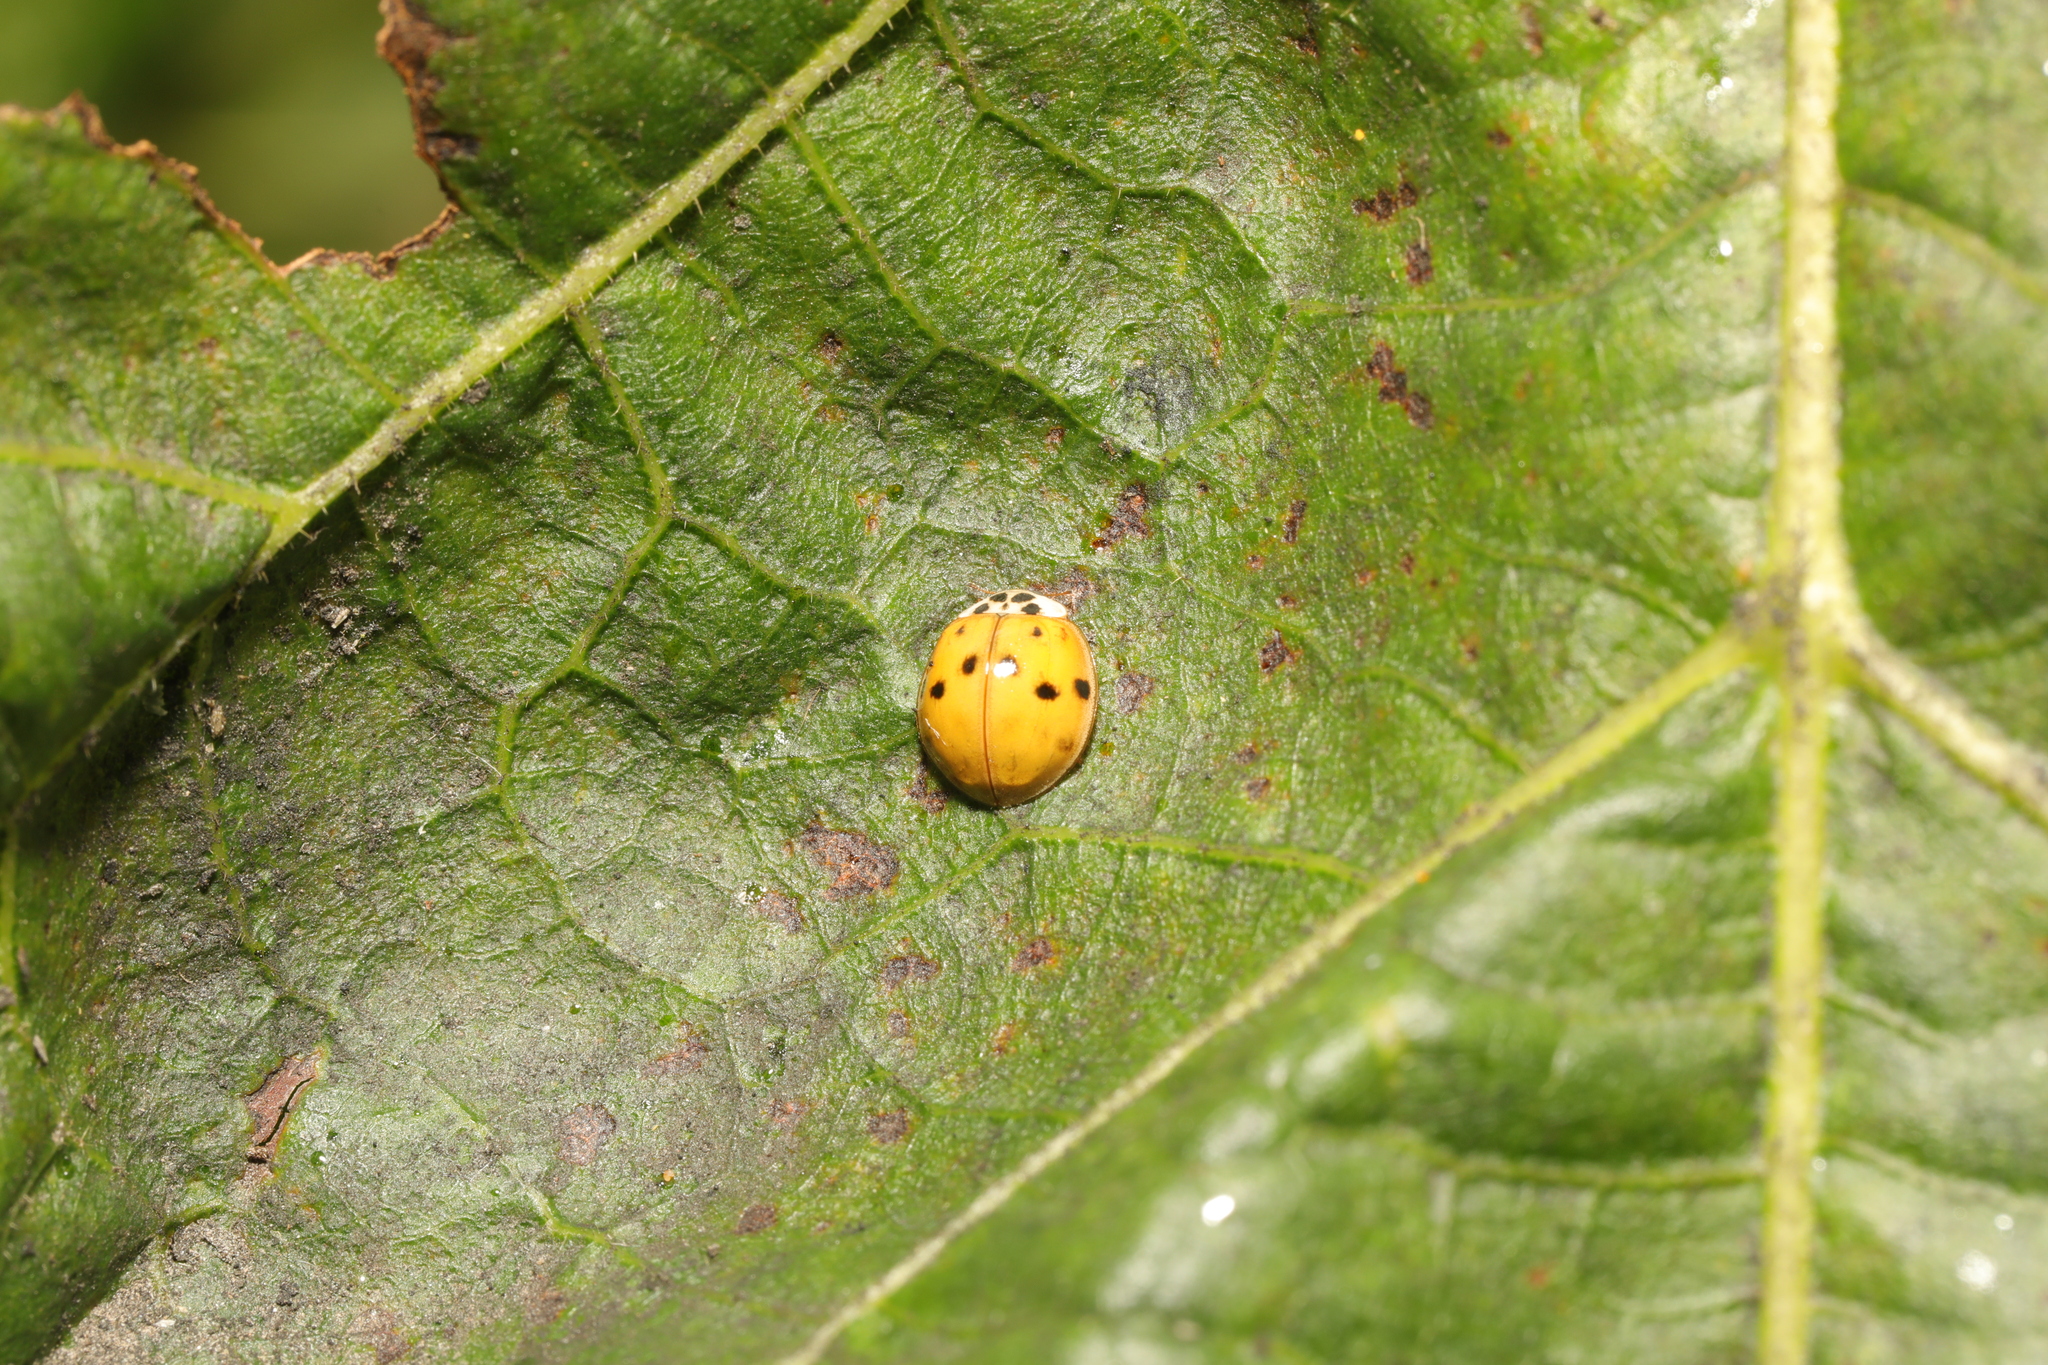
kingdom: Animalia
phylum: Arthropoda
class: Insecta
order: Coleoptera
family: Coccinellidae
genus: Harmonia
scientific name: Harmonia axyridis
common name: Harlequin ladybird
